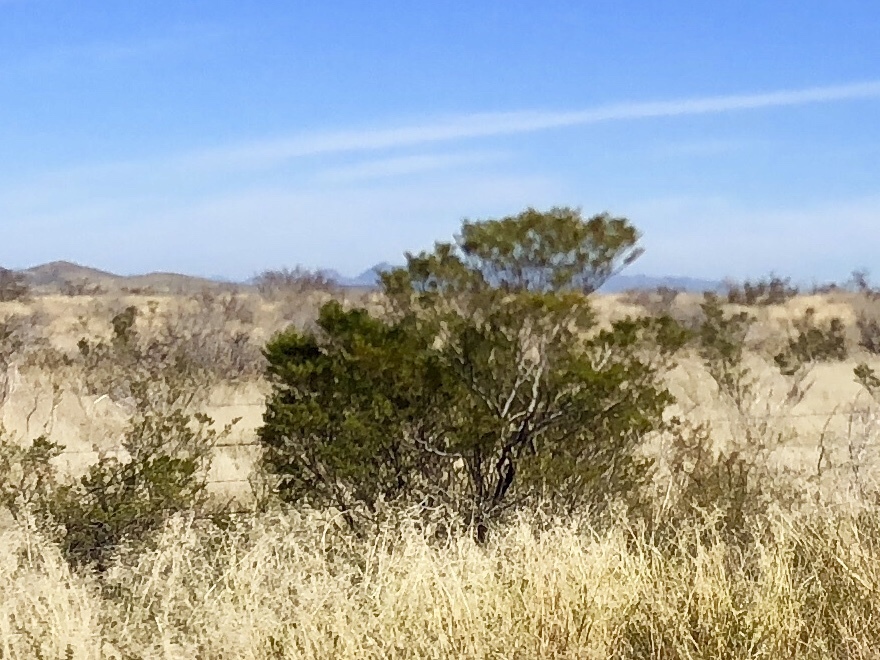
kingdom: Plantae
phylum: Tracheophyta
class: Magnoliopsida
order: Zygophyllales
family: Zygophyllaceae
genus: Larrea
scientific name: Larrea tridentata
